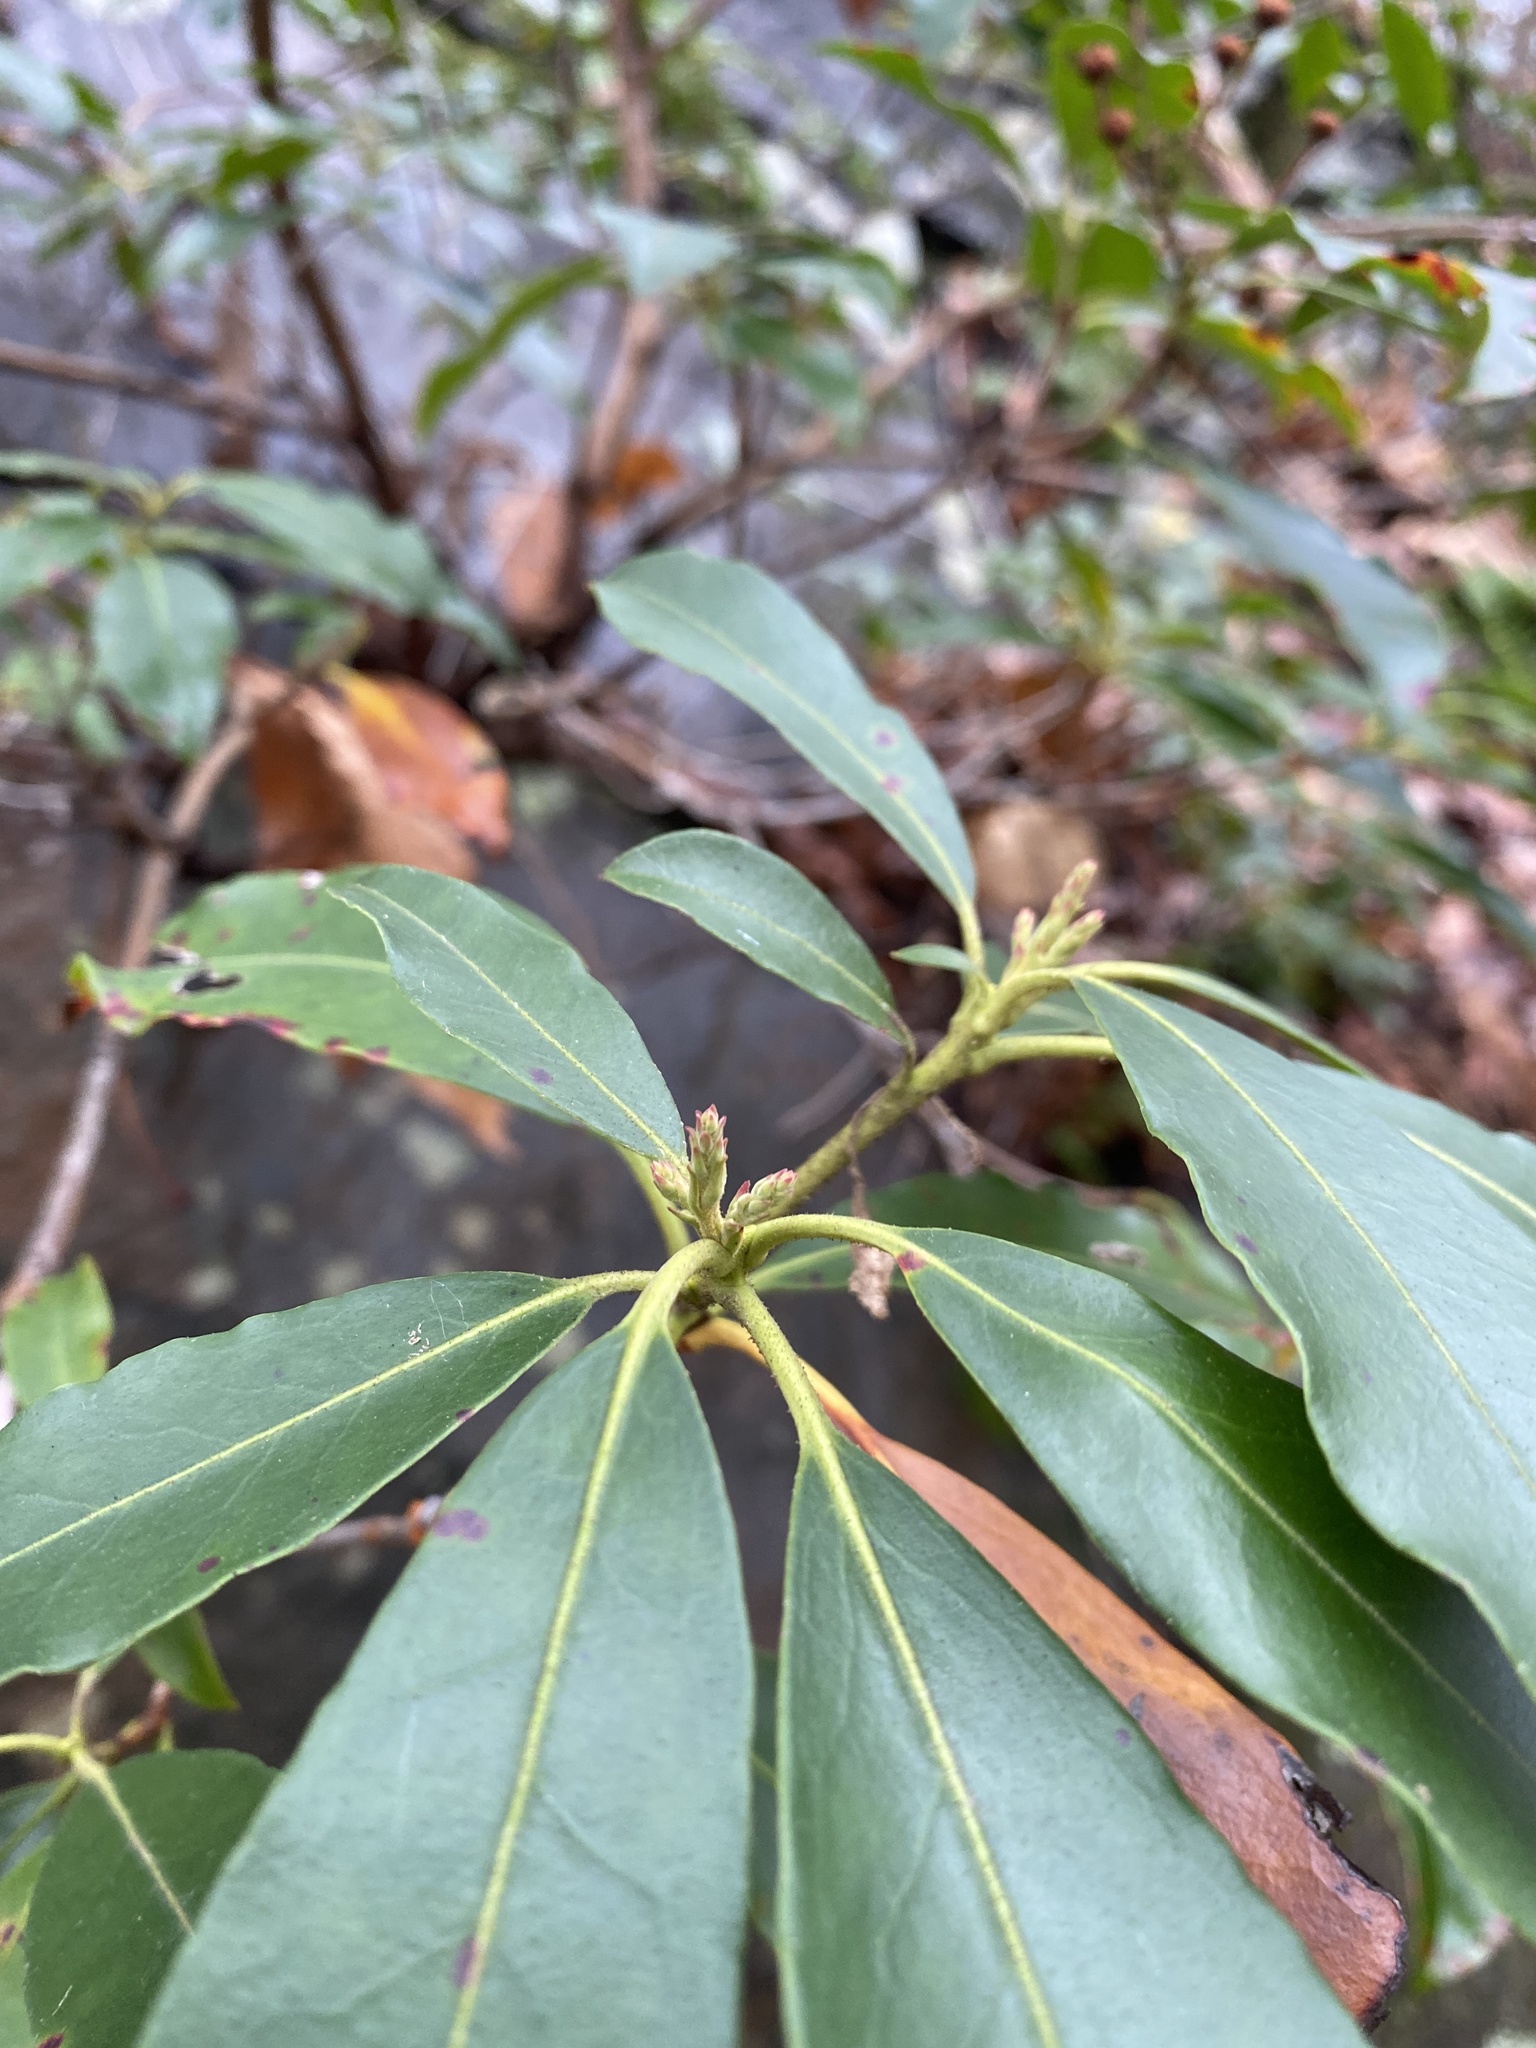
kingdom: Plantae
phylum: Tracheophyta
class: Magnoliopsida
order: Ericales
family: Ericaceae
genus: Kalmia
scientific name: Kalmia latifolia
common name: Mountain-laurel
